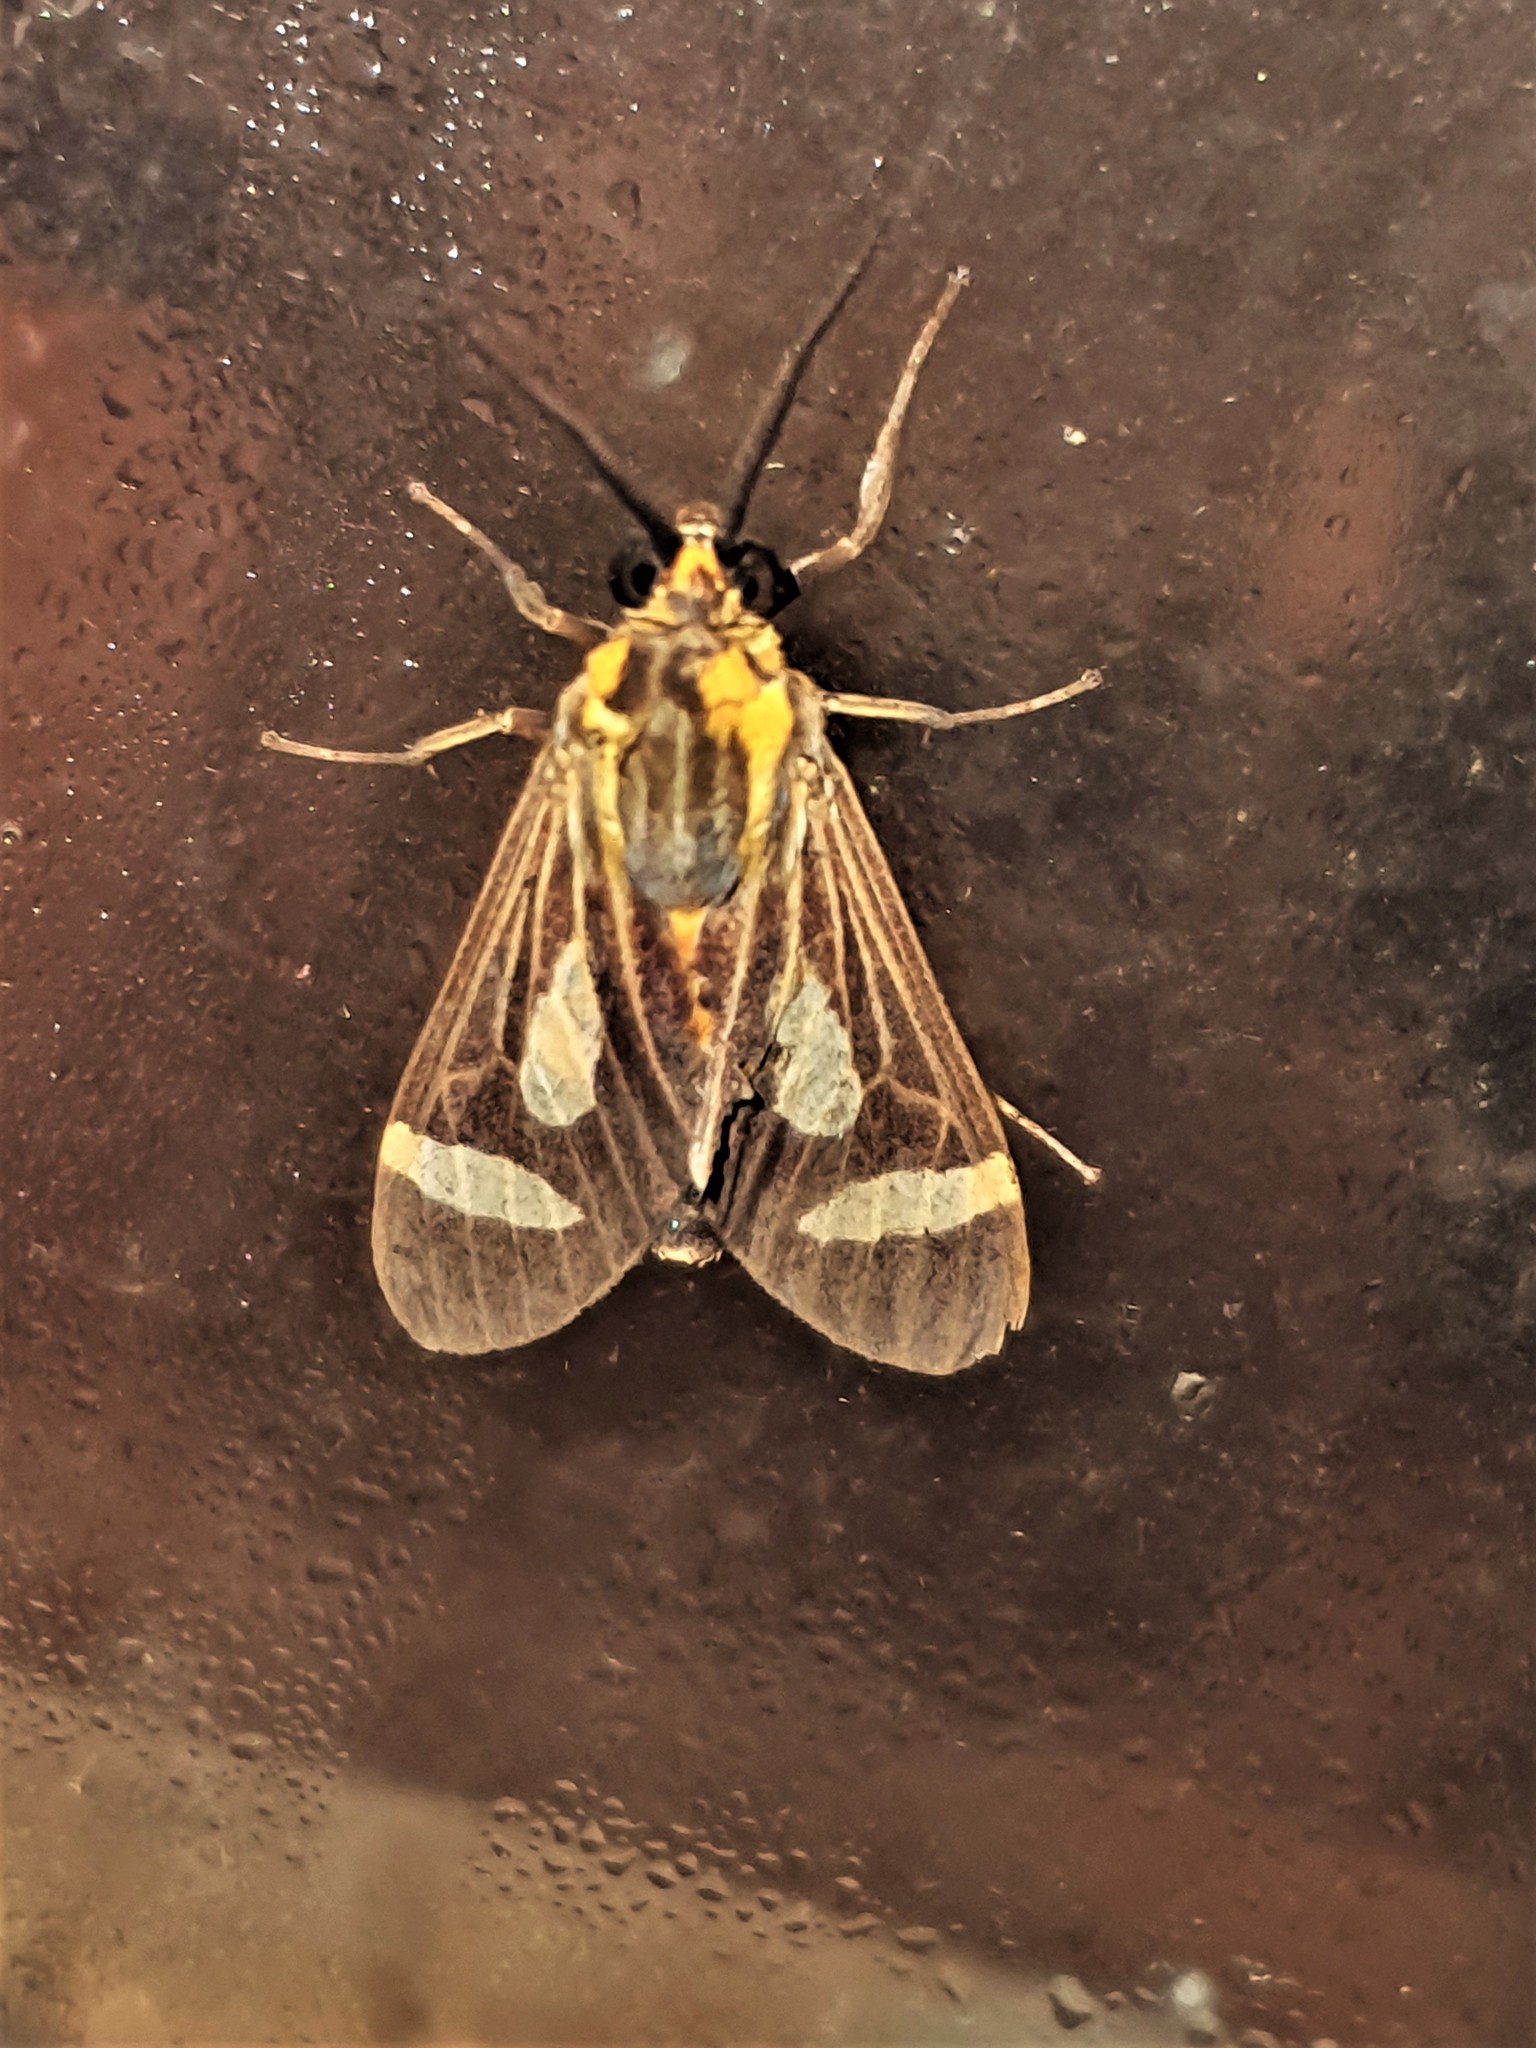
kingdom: Animalia
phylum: Arthropoda
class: Insecta
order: Lepidoptera
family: Erebidae
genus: Apiconoma
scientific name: Apiconoma opposita
